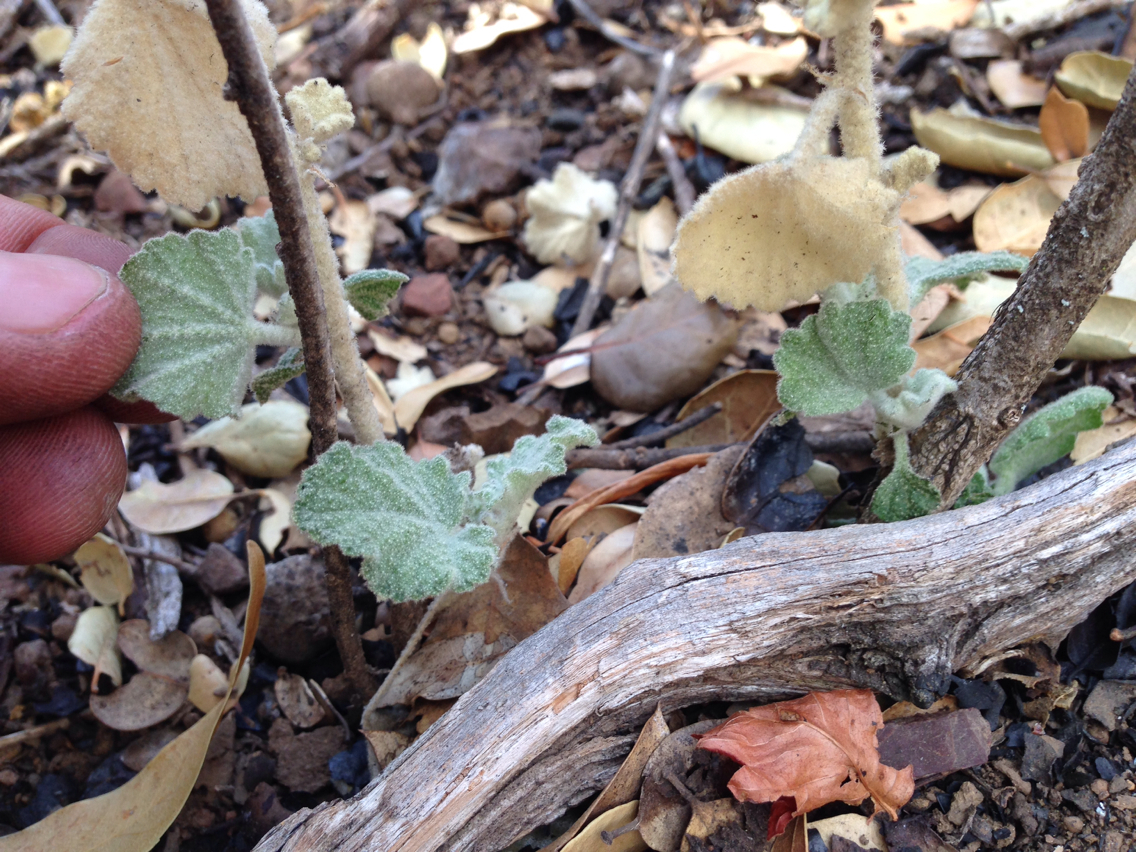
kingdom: Plantae
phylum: Tracheophyta
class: Magnoliopsida
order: Malvales
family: Malvaceae
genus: Malacothamnus
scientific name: Malacothamnus fremontii
